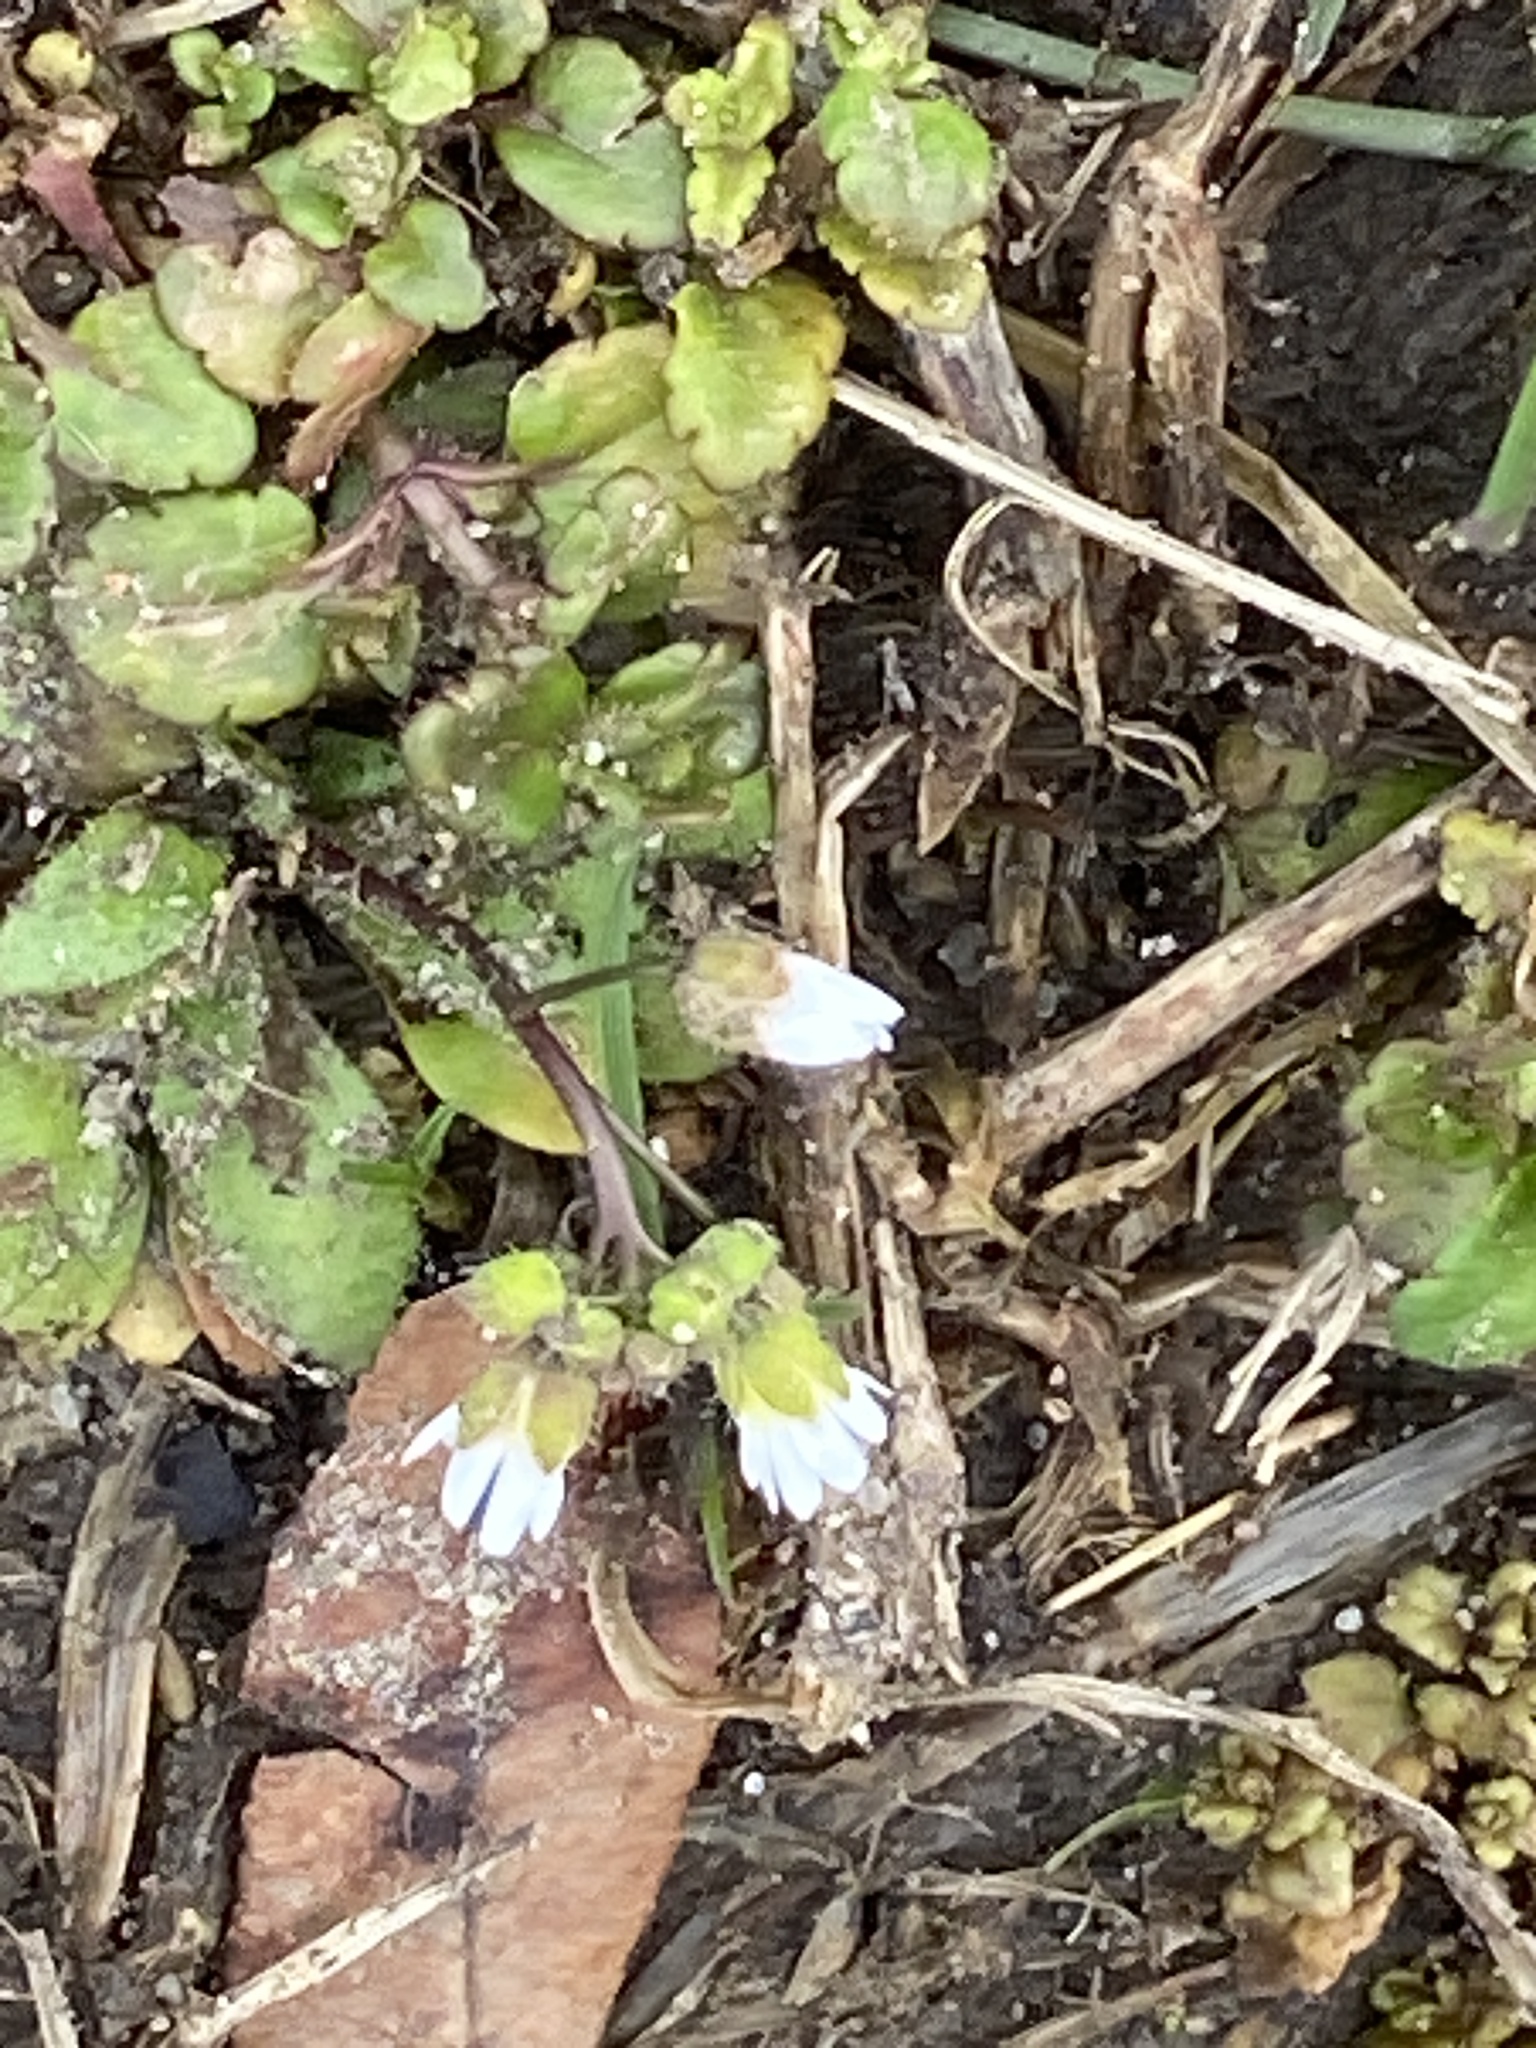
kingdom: Plantae
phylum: Tracheophyta
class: Magnoliopsida
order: Brassicales
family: Brassicaceae
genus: Draba
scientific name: Draba verna
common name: Spring draba
